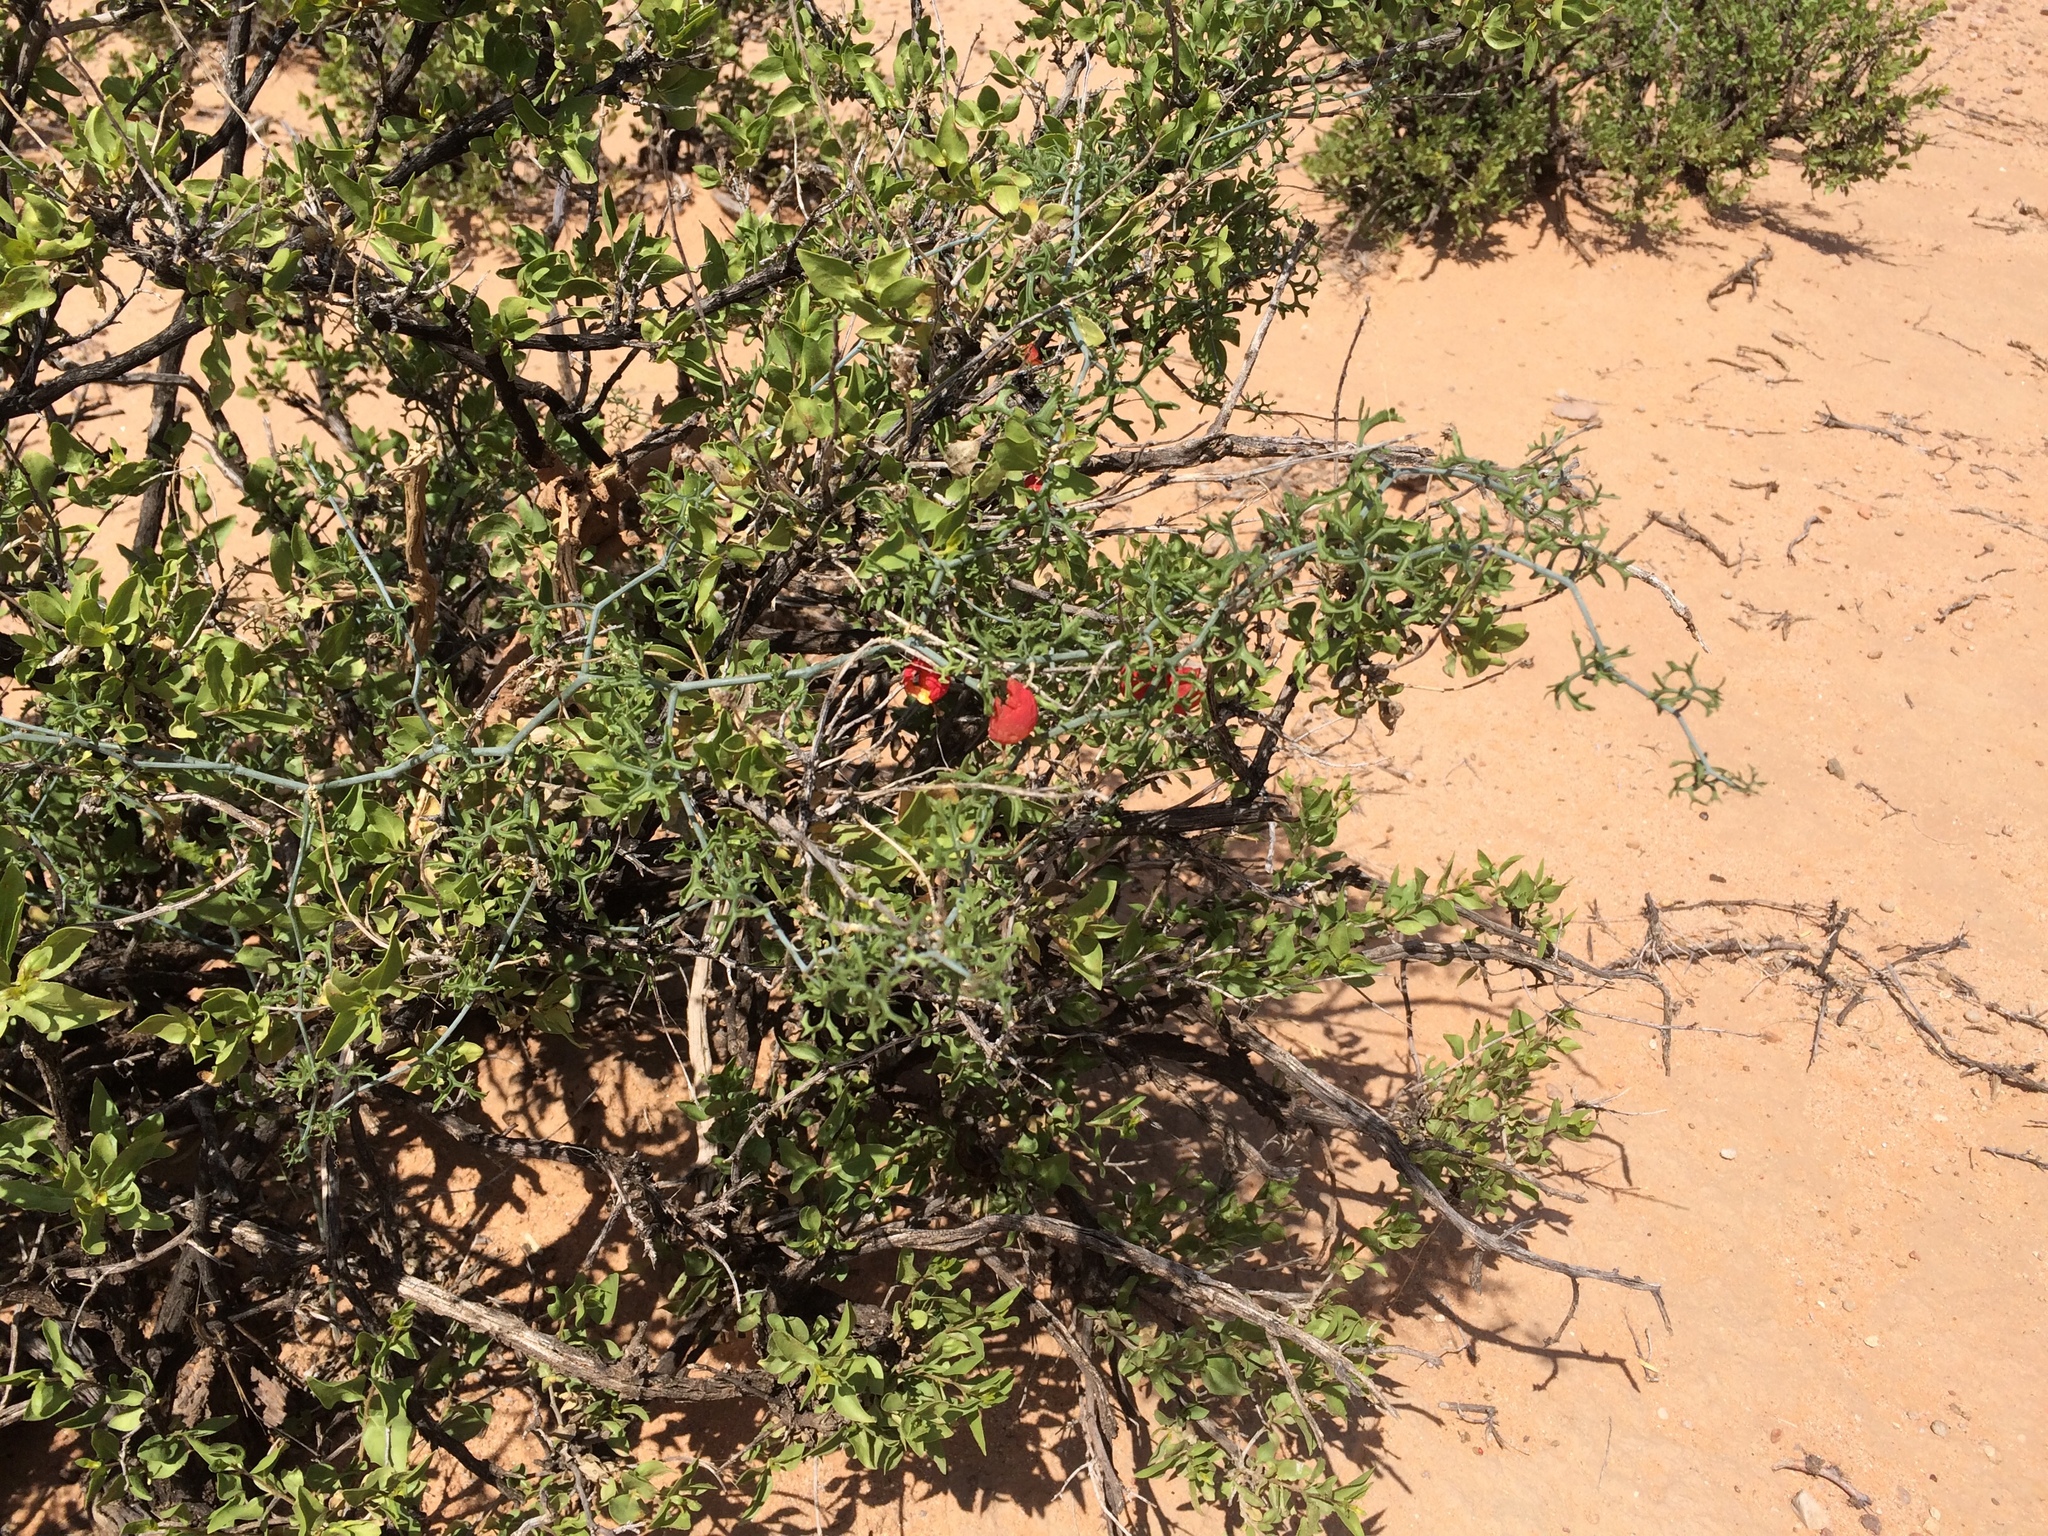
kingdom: Plantae
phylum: Tracheophyta
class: Magnoliopsida
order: Cucurbitales
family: Cucurbitaceae
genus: Ibervillea
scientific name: Ibervillea tenuisecta
